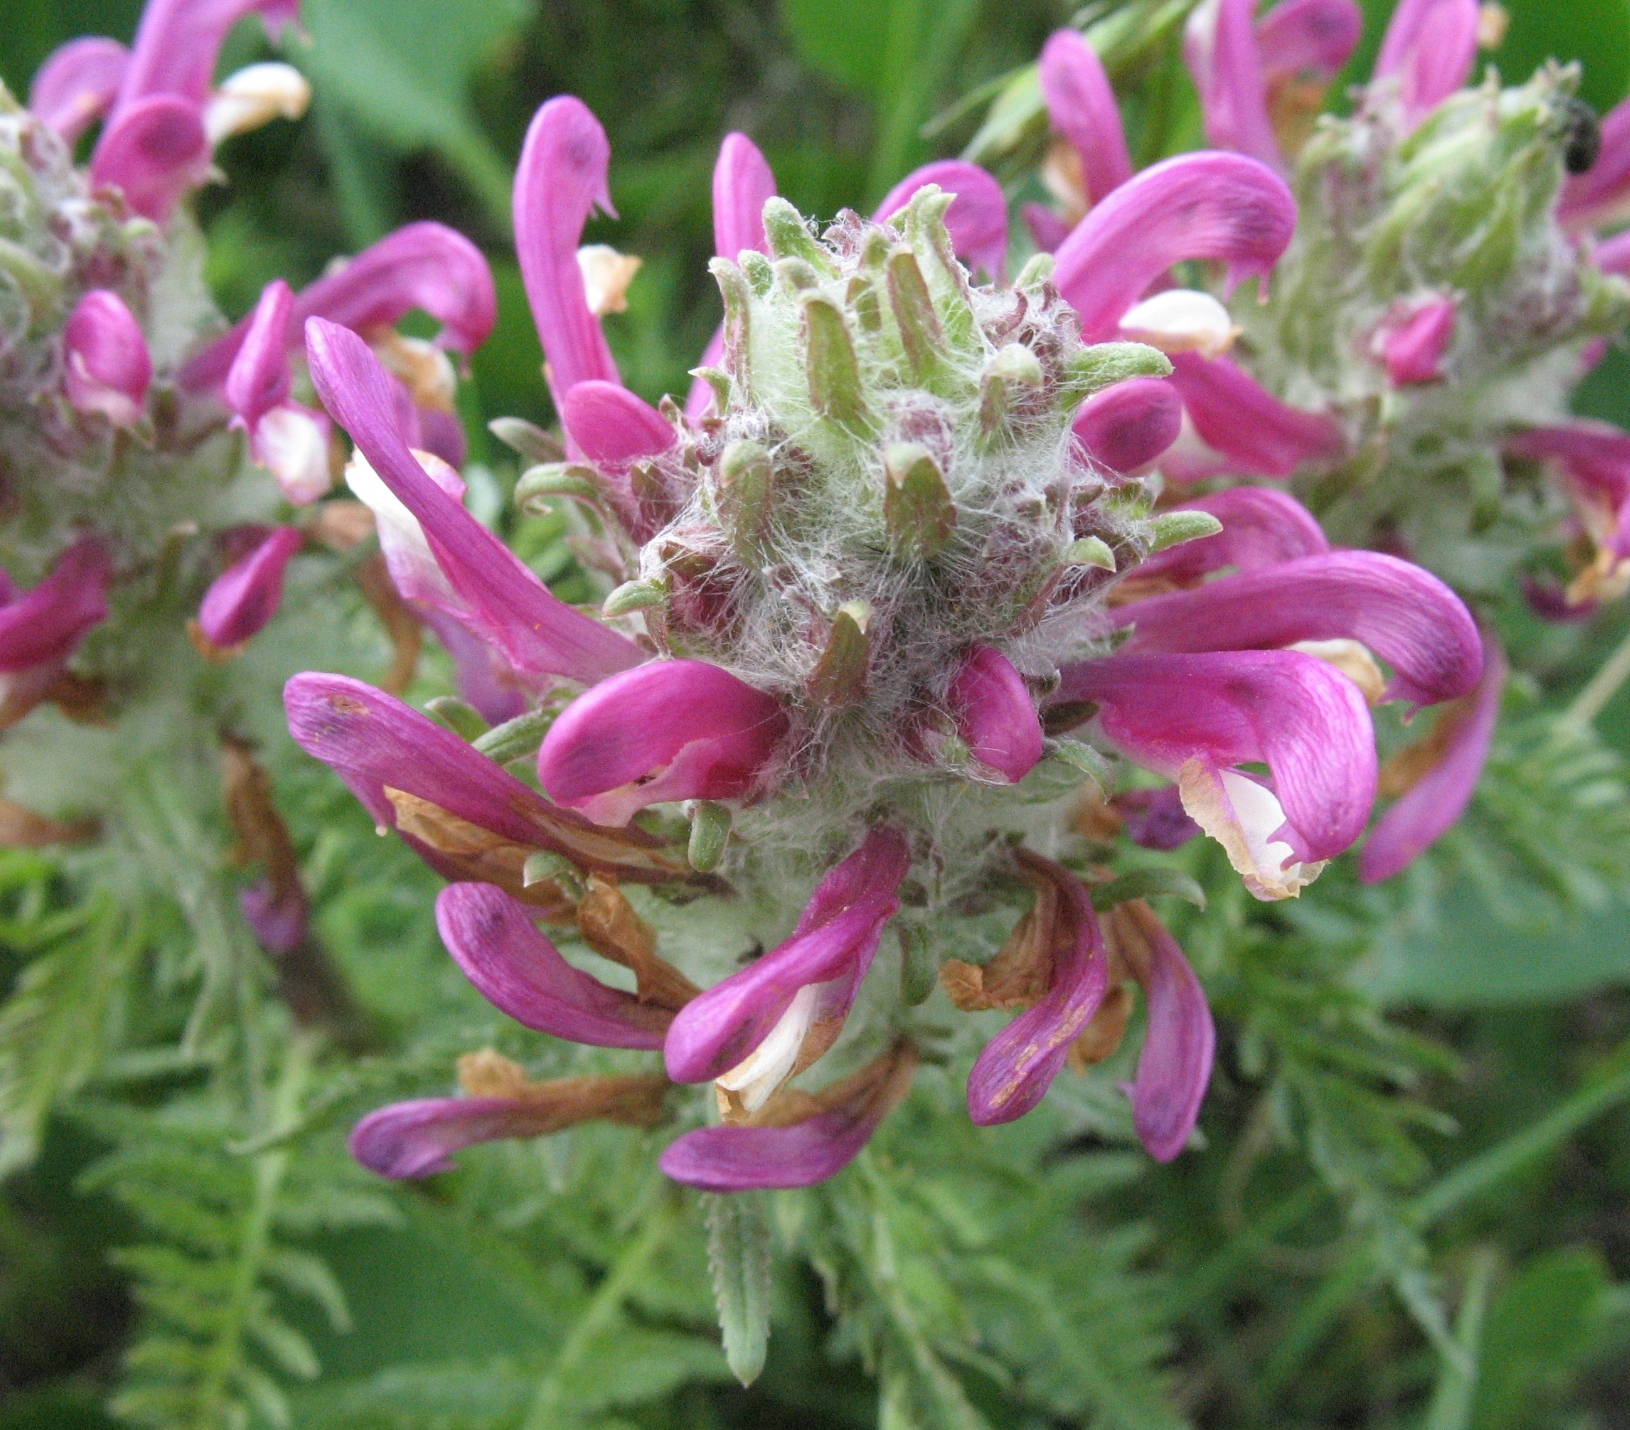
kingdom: Plantae
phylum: Tracheophyta
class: Magnoliopsida
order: Lamiales
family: Orobanchaceae
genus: Pedicularis
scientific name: Pedicularis dasystachys
